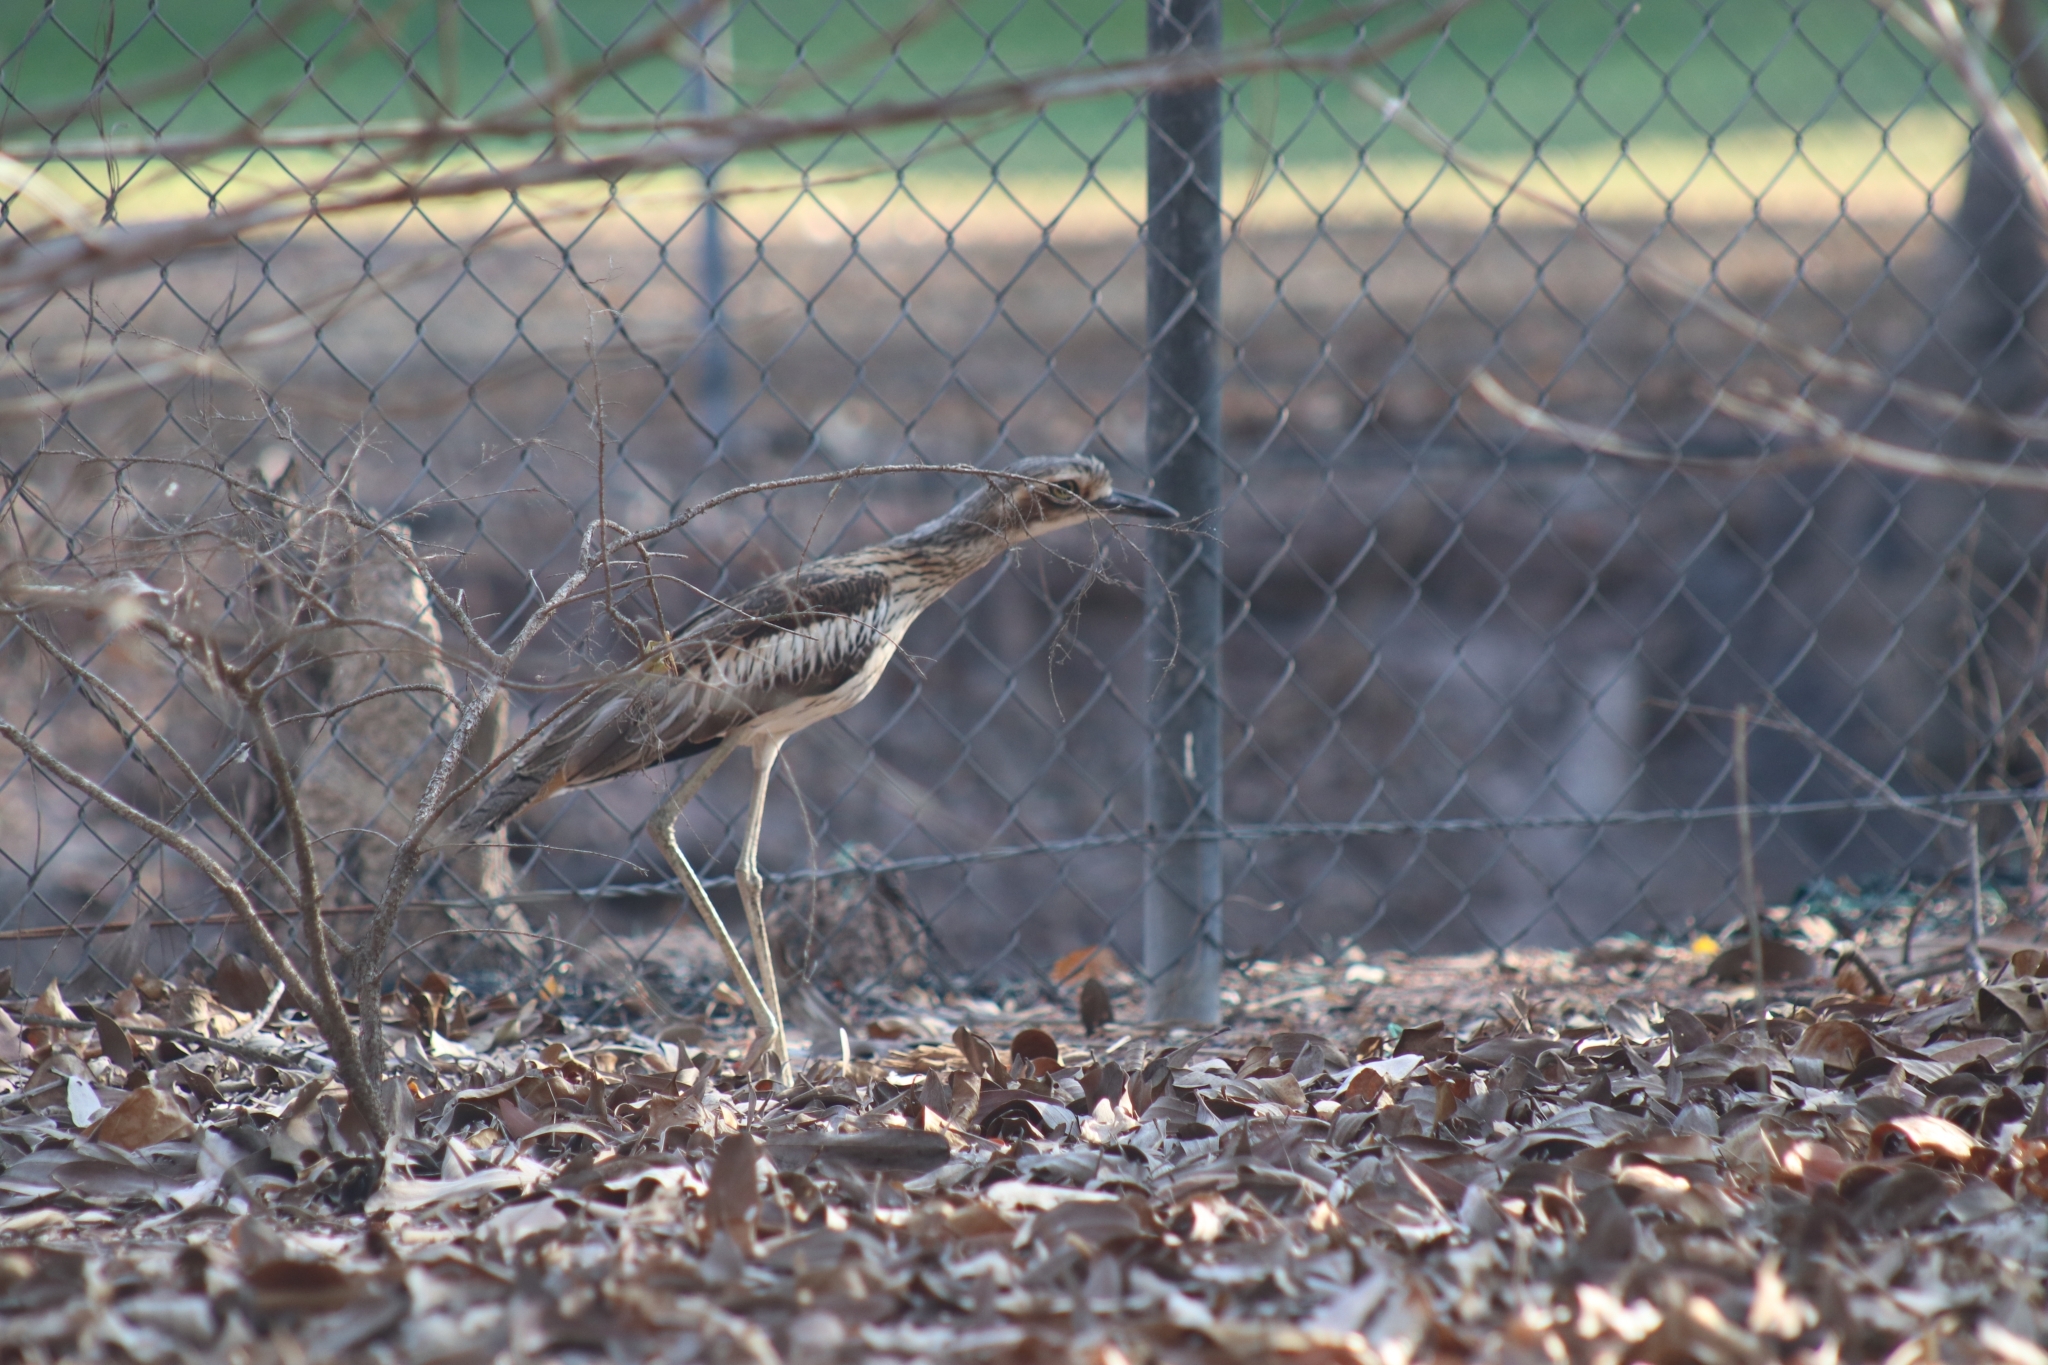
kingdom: Animalia
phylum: Chordata
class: Aves
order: Charadriiformes
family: Burhinidae
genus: Burhinus
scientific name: Burhinus grallarius
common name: Bush stone-curlew
